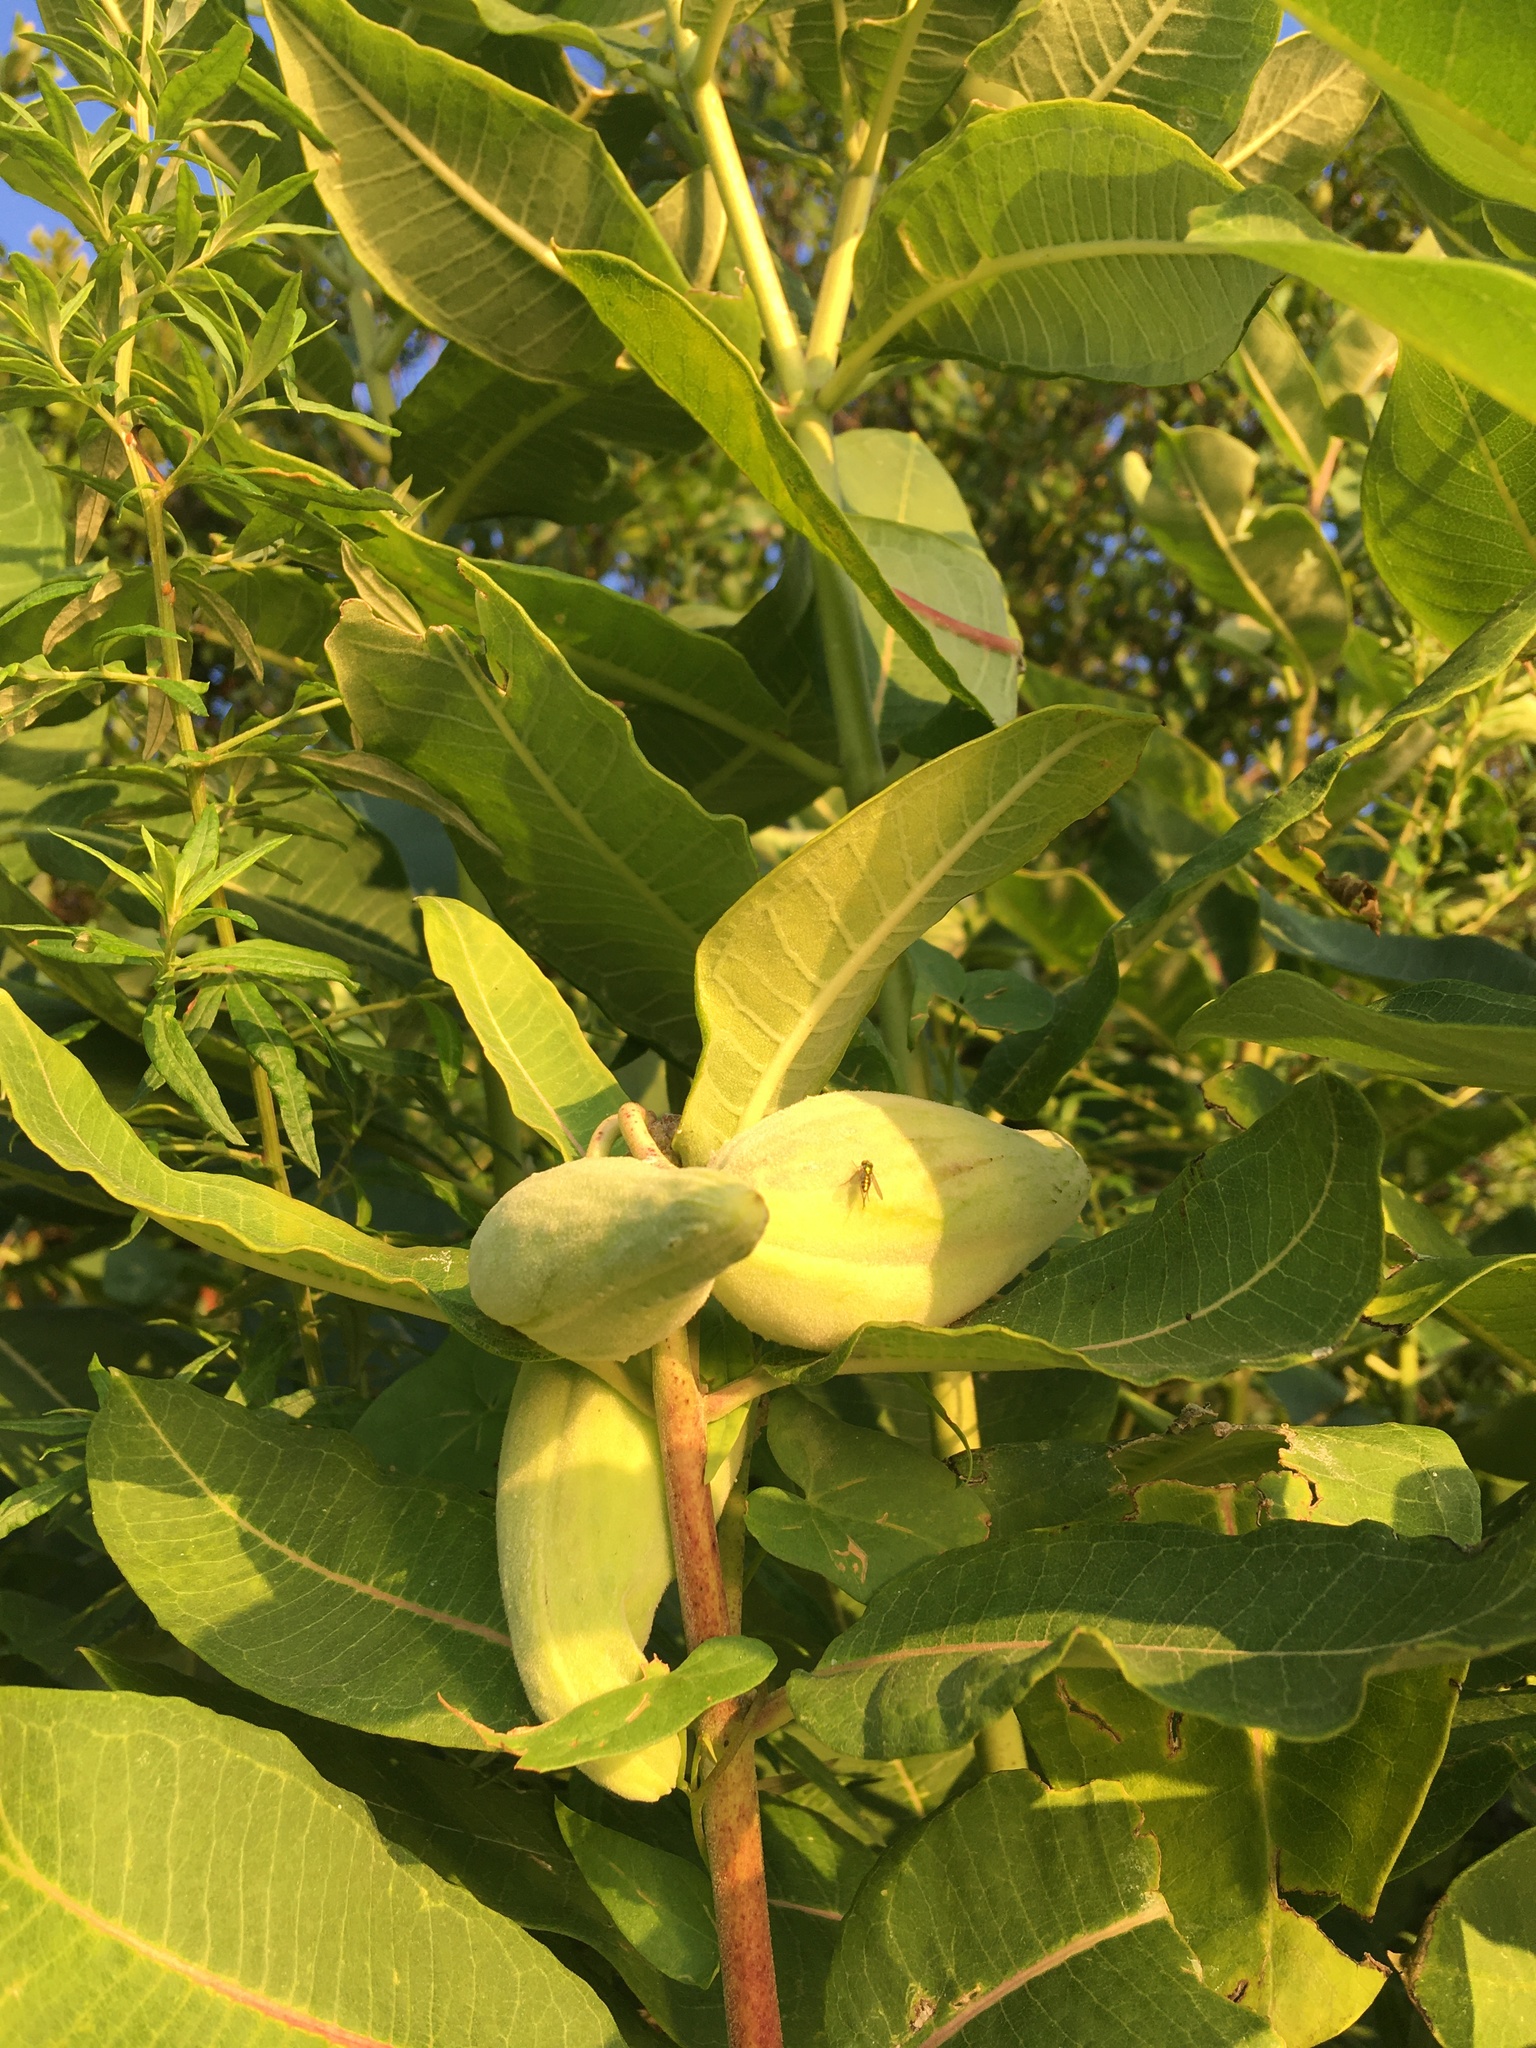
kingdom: Plantae
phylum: Tracheophyta
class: Magnoliopsida
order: Gentianales
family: Apocynaceae
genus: Asclepias
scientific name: Asclepias syriaca
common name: Common milkweed
